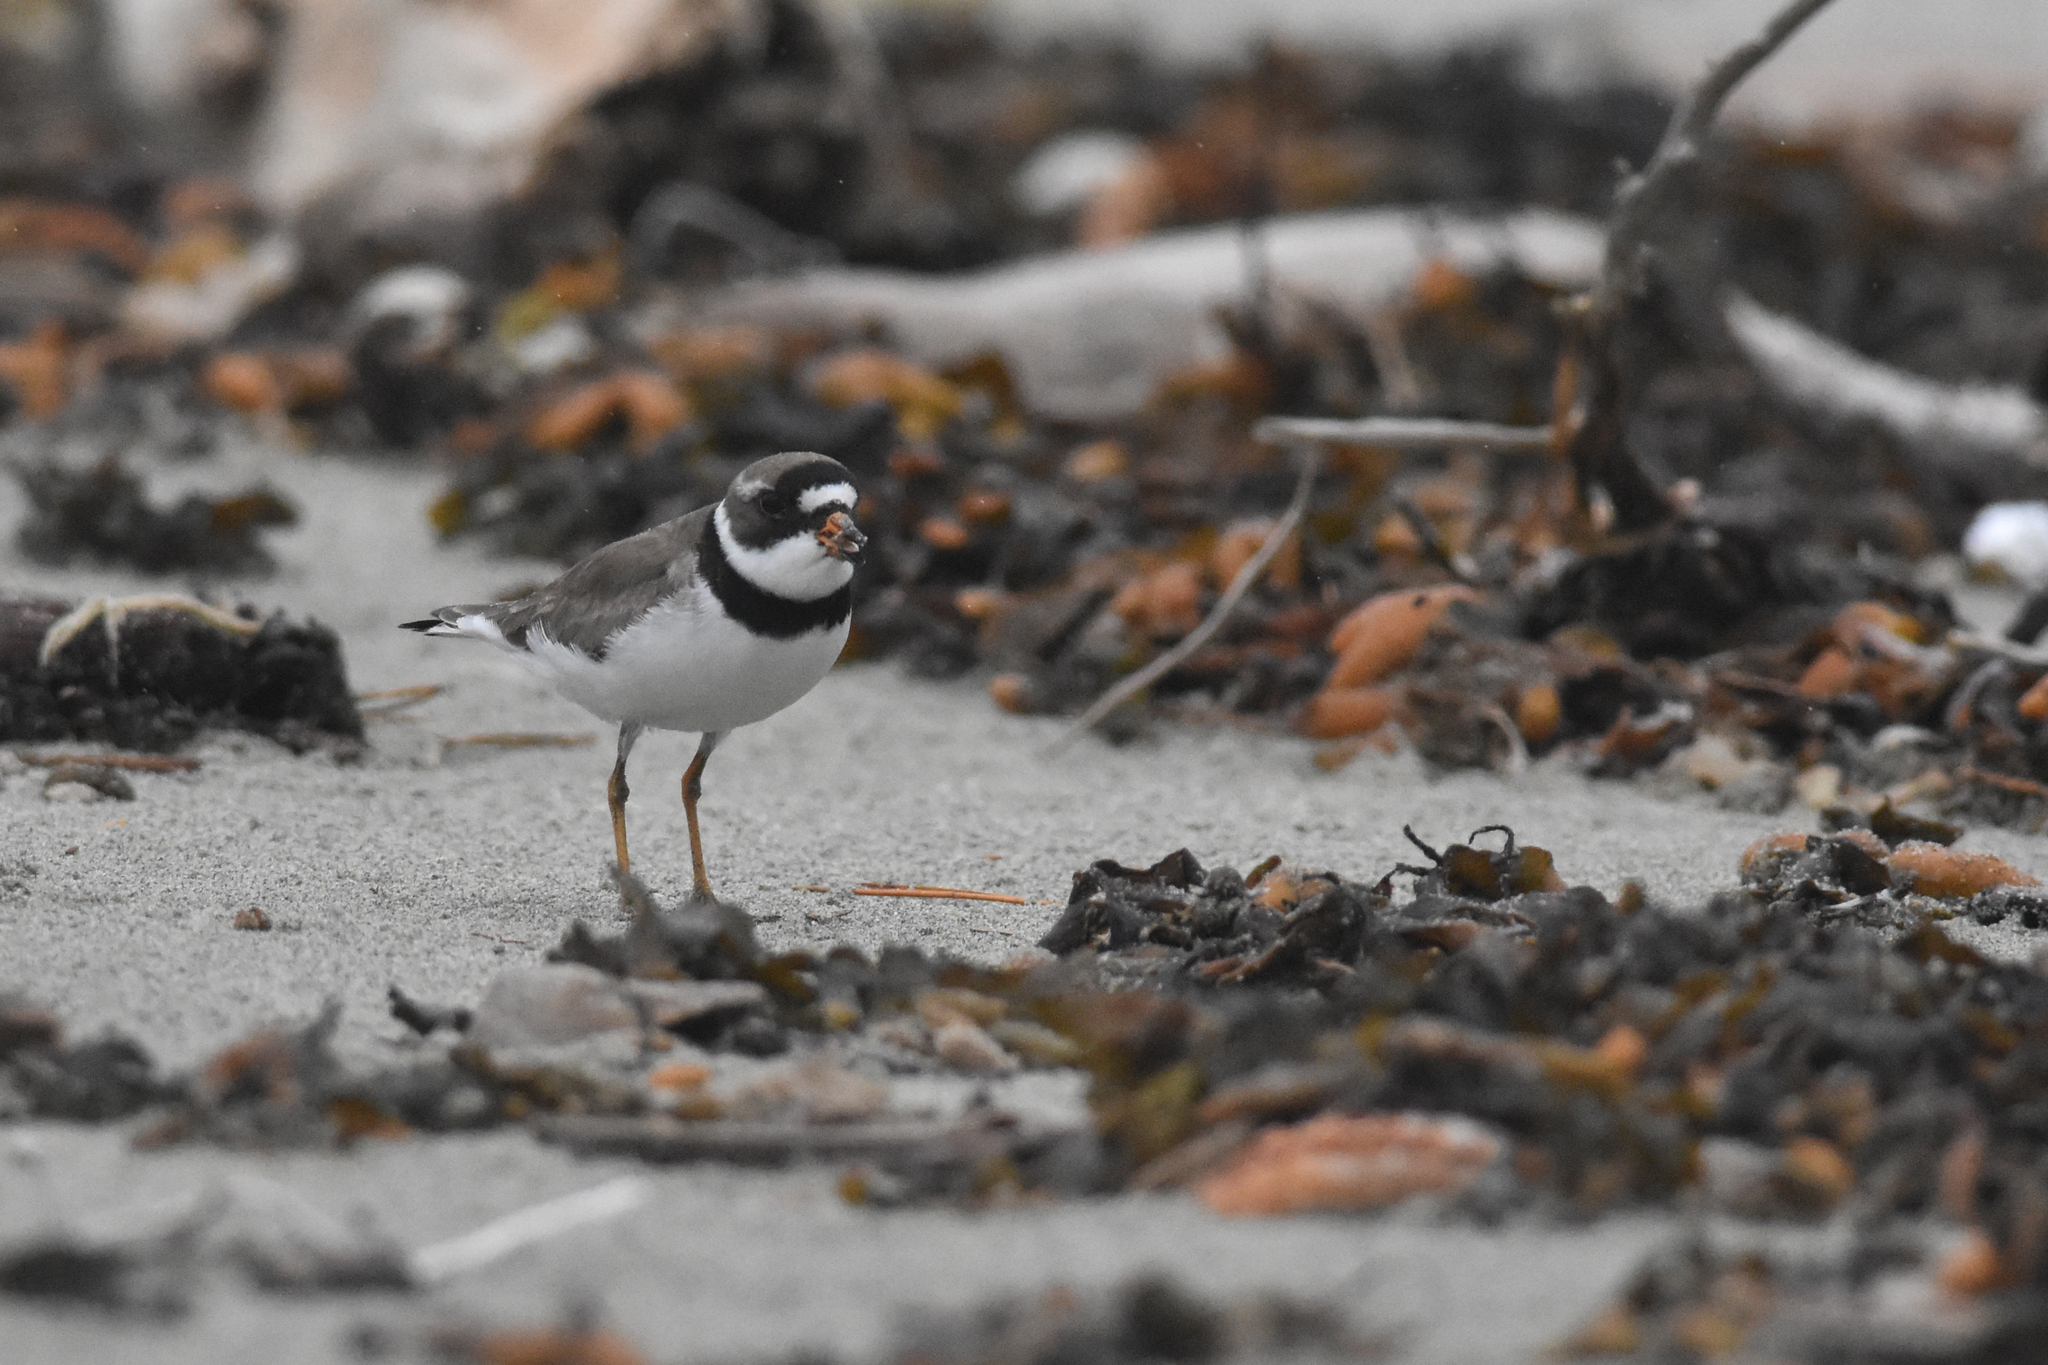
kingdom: Animalia
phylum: Chordata
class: Aves
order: Charadriiformes
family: Charadriidae
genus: Charadrius
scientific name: Charadrius semipalmatus
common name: Semipalmated plover
